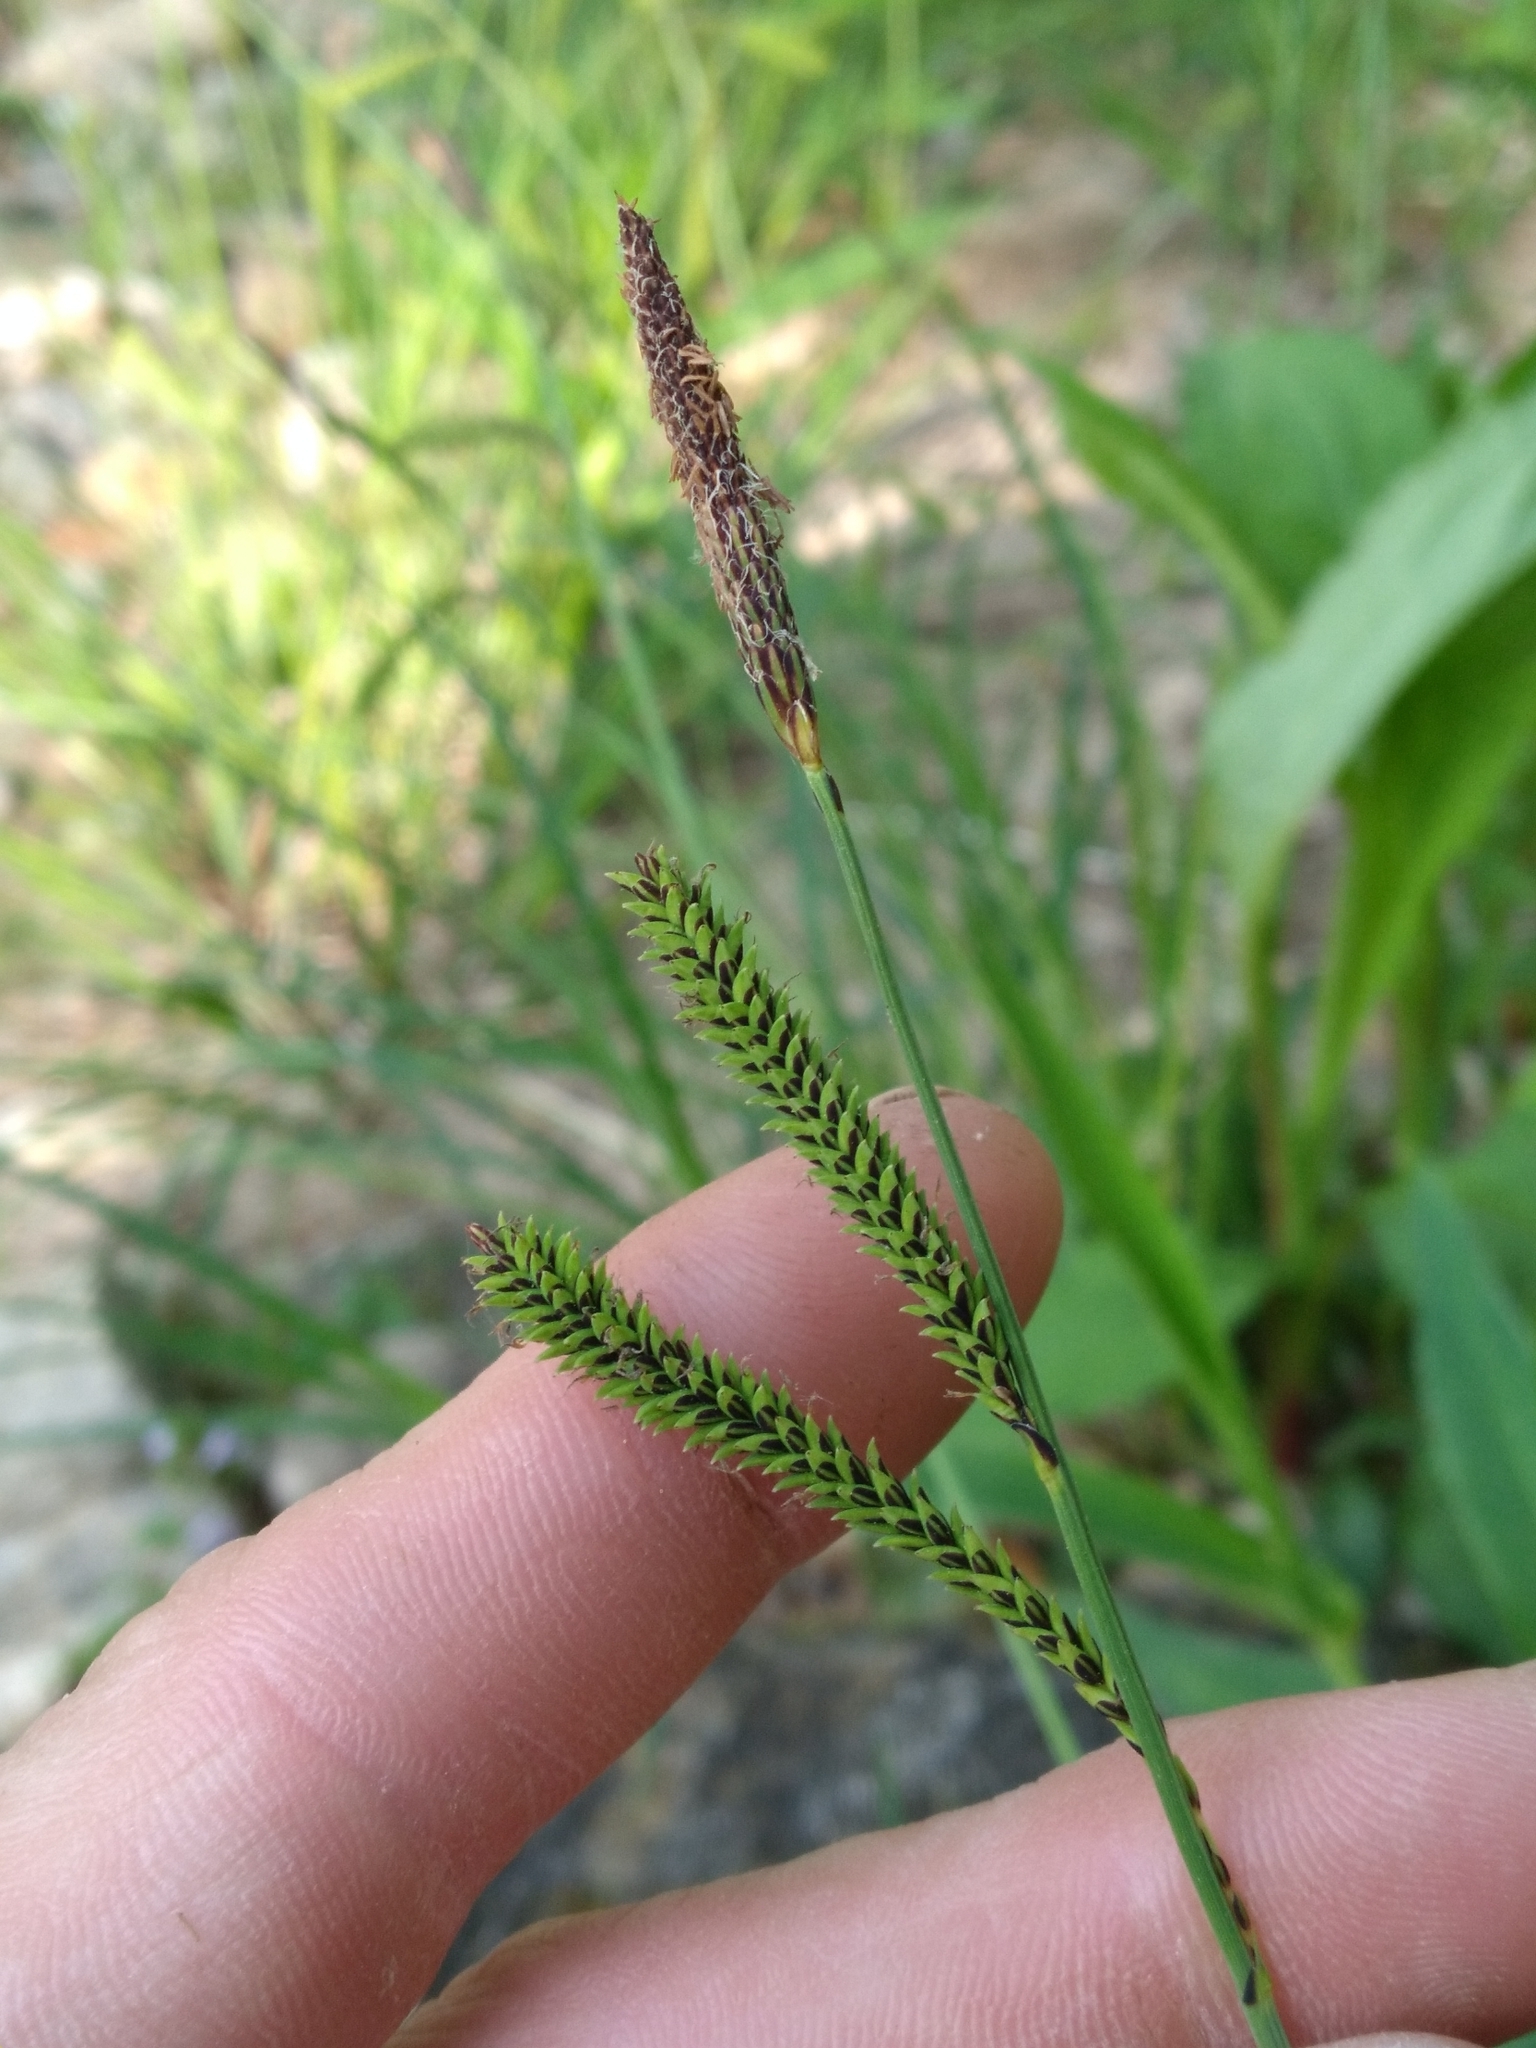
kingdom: Plantae
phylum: Tracheophyta
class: Liliopsida
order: Poales
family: Cyperaceae
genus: Carex
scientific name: Carex torta
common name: Twisted sedge
